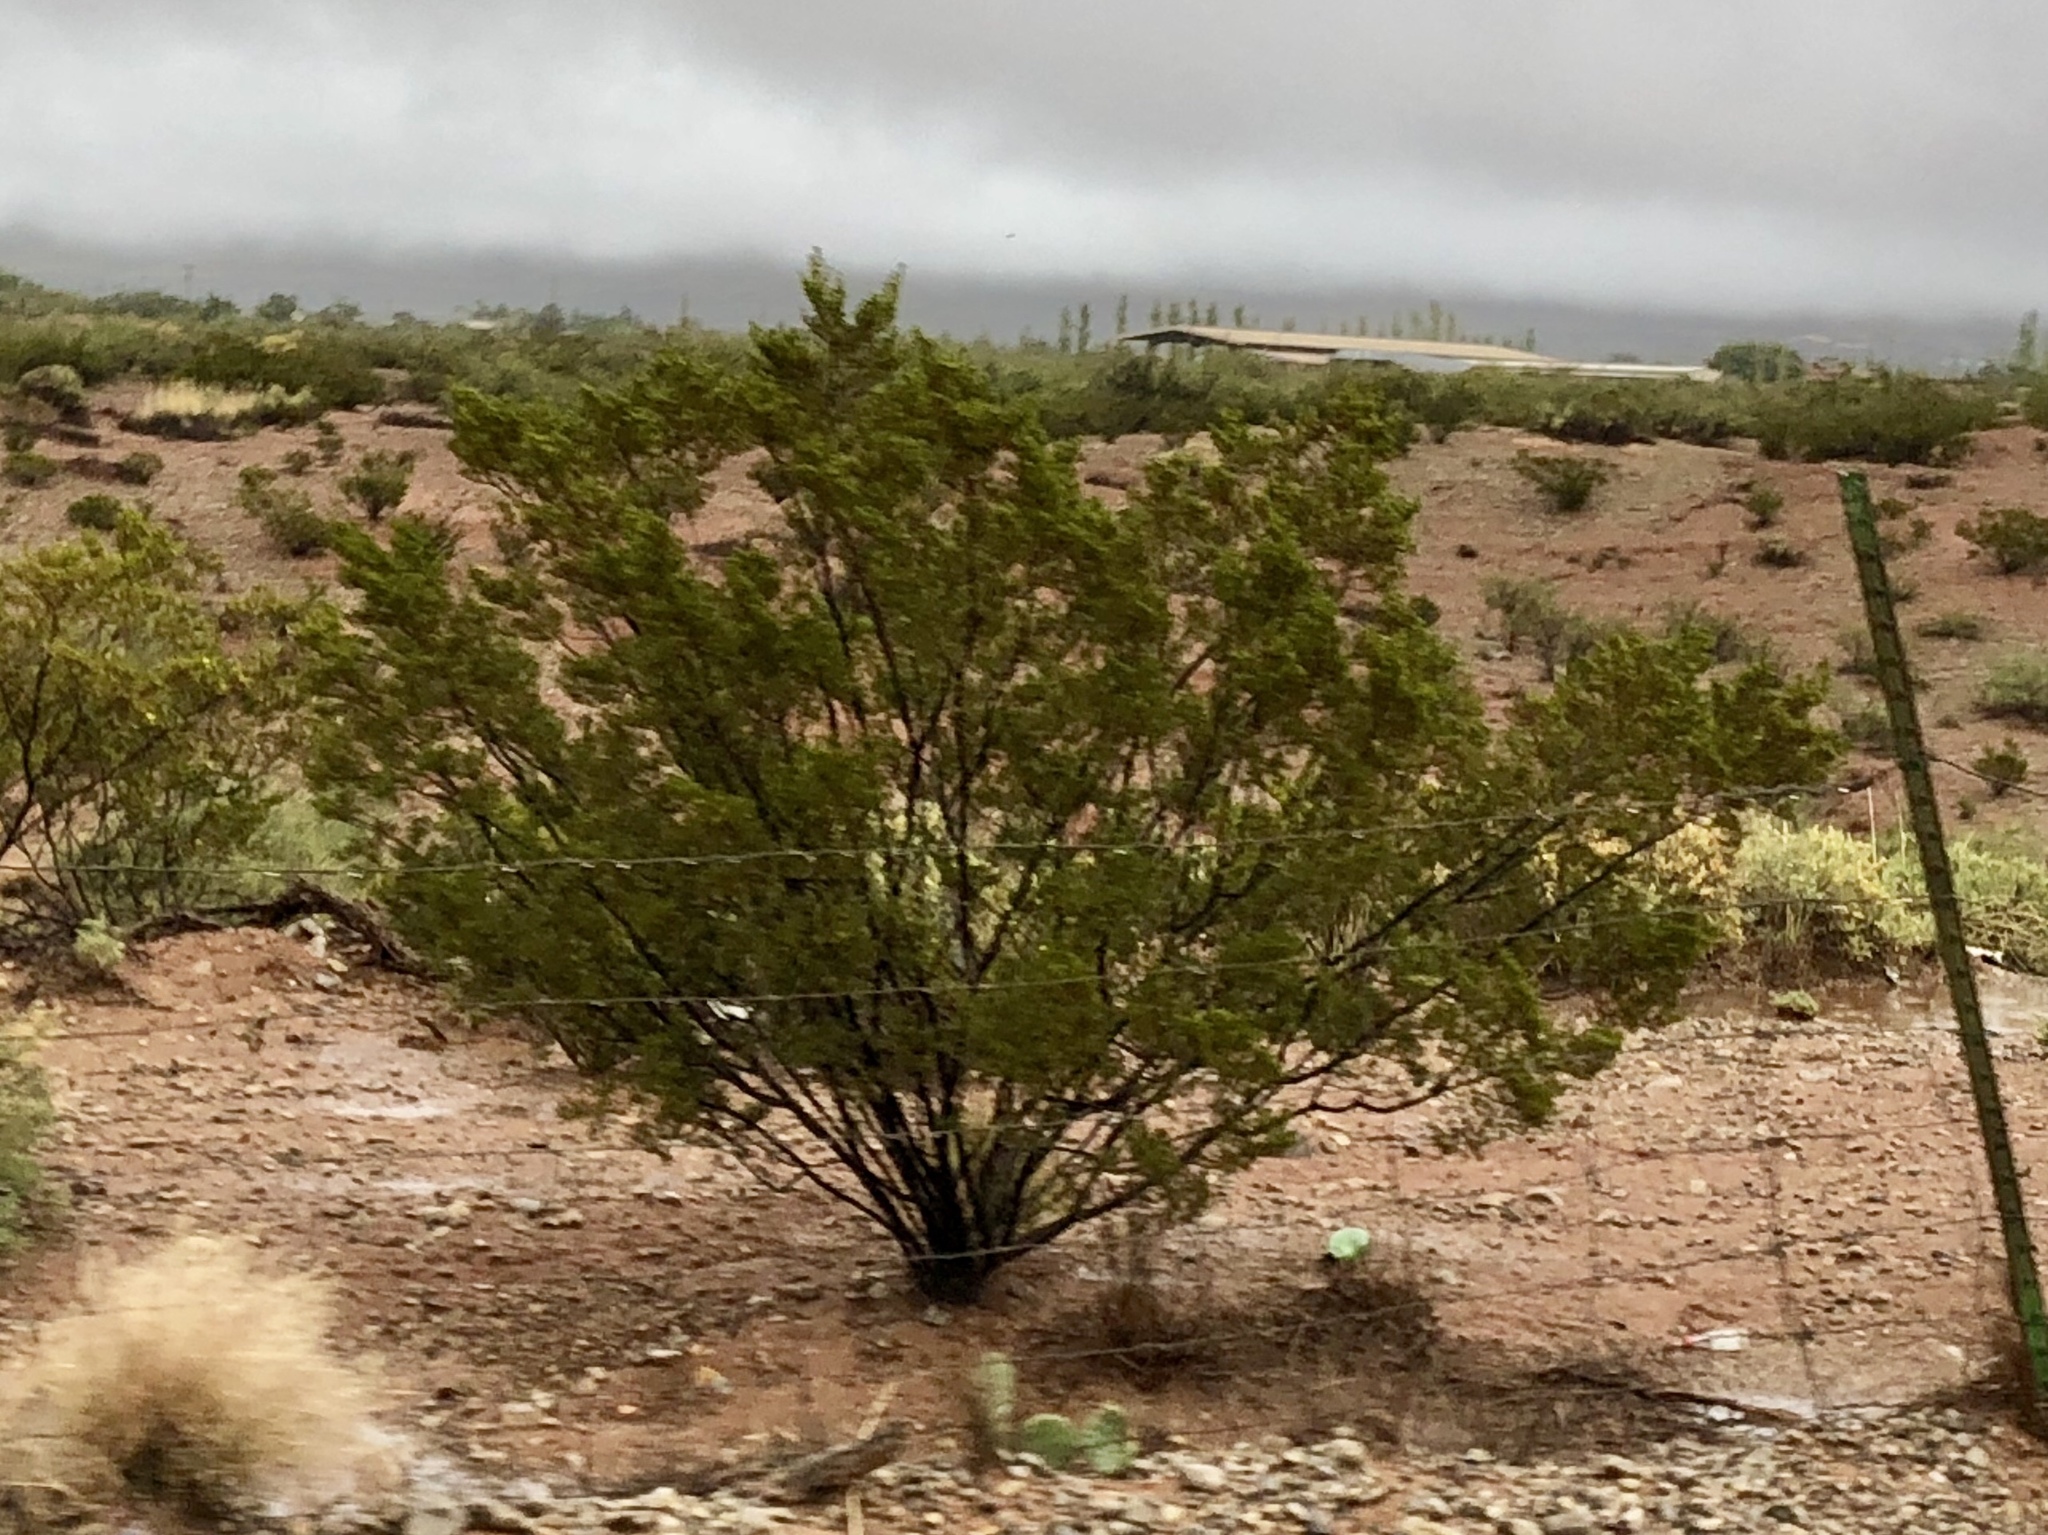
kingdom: Plantae
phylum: Tracheophyta
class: Magnoliopsida
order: Zygophyllales
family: Zygophyllaceae
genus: Larrea
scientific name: Larrea tridentata
